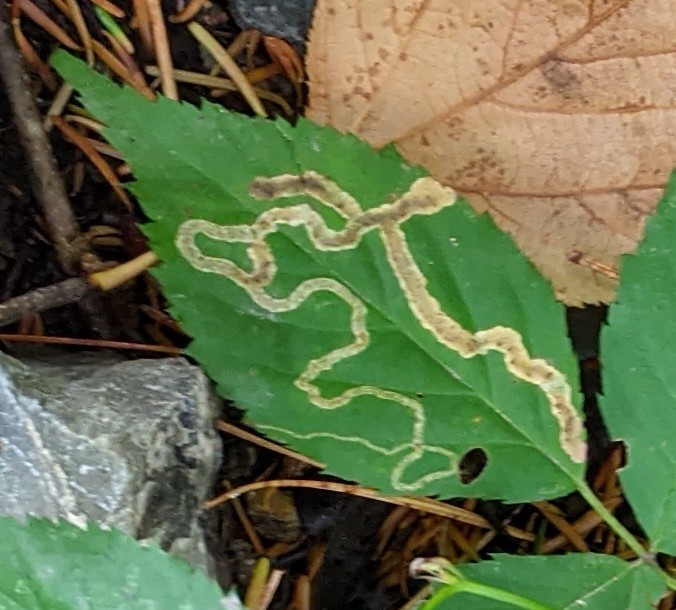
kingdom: Animalia
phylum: Arthropoda
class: Insecta
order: Diptera
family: Agromyzidae
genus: Agromyza
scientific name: Agromyza vockerothi
